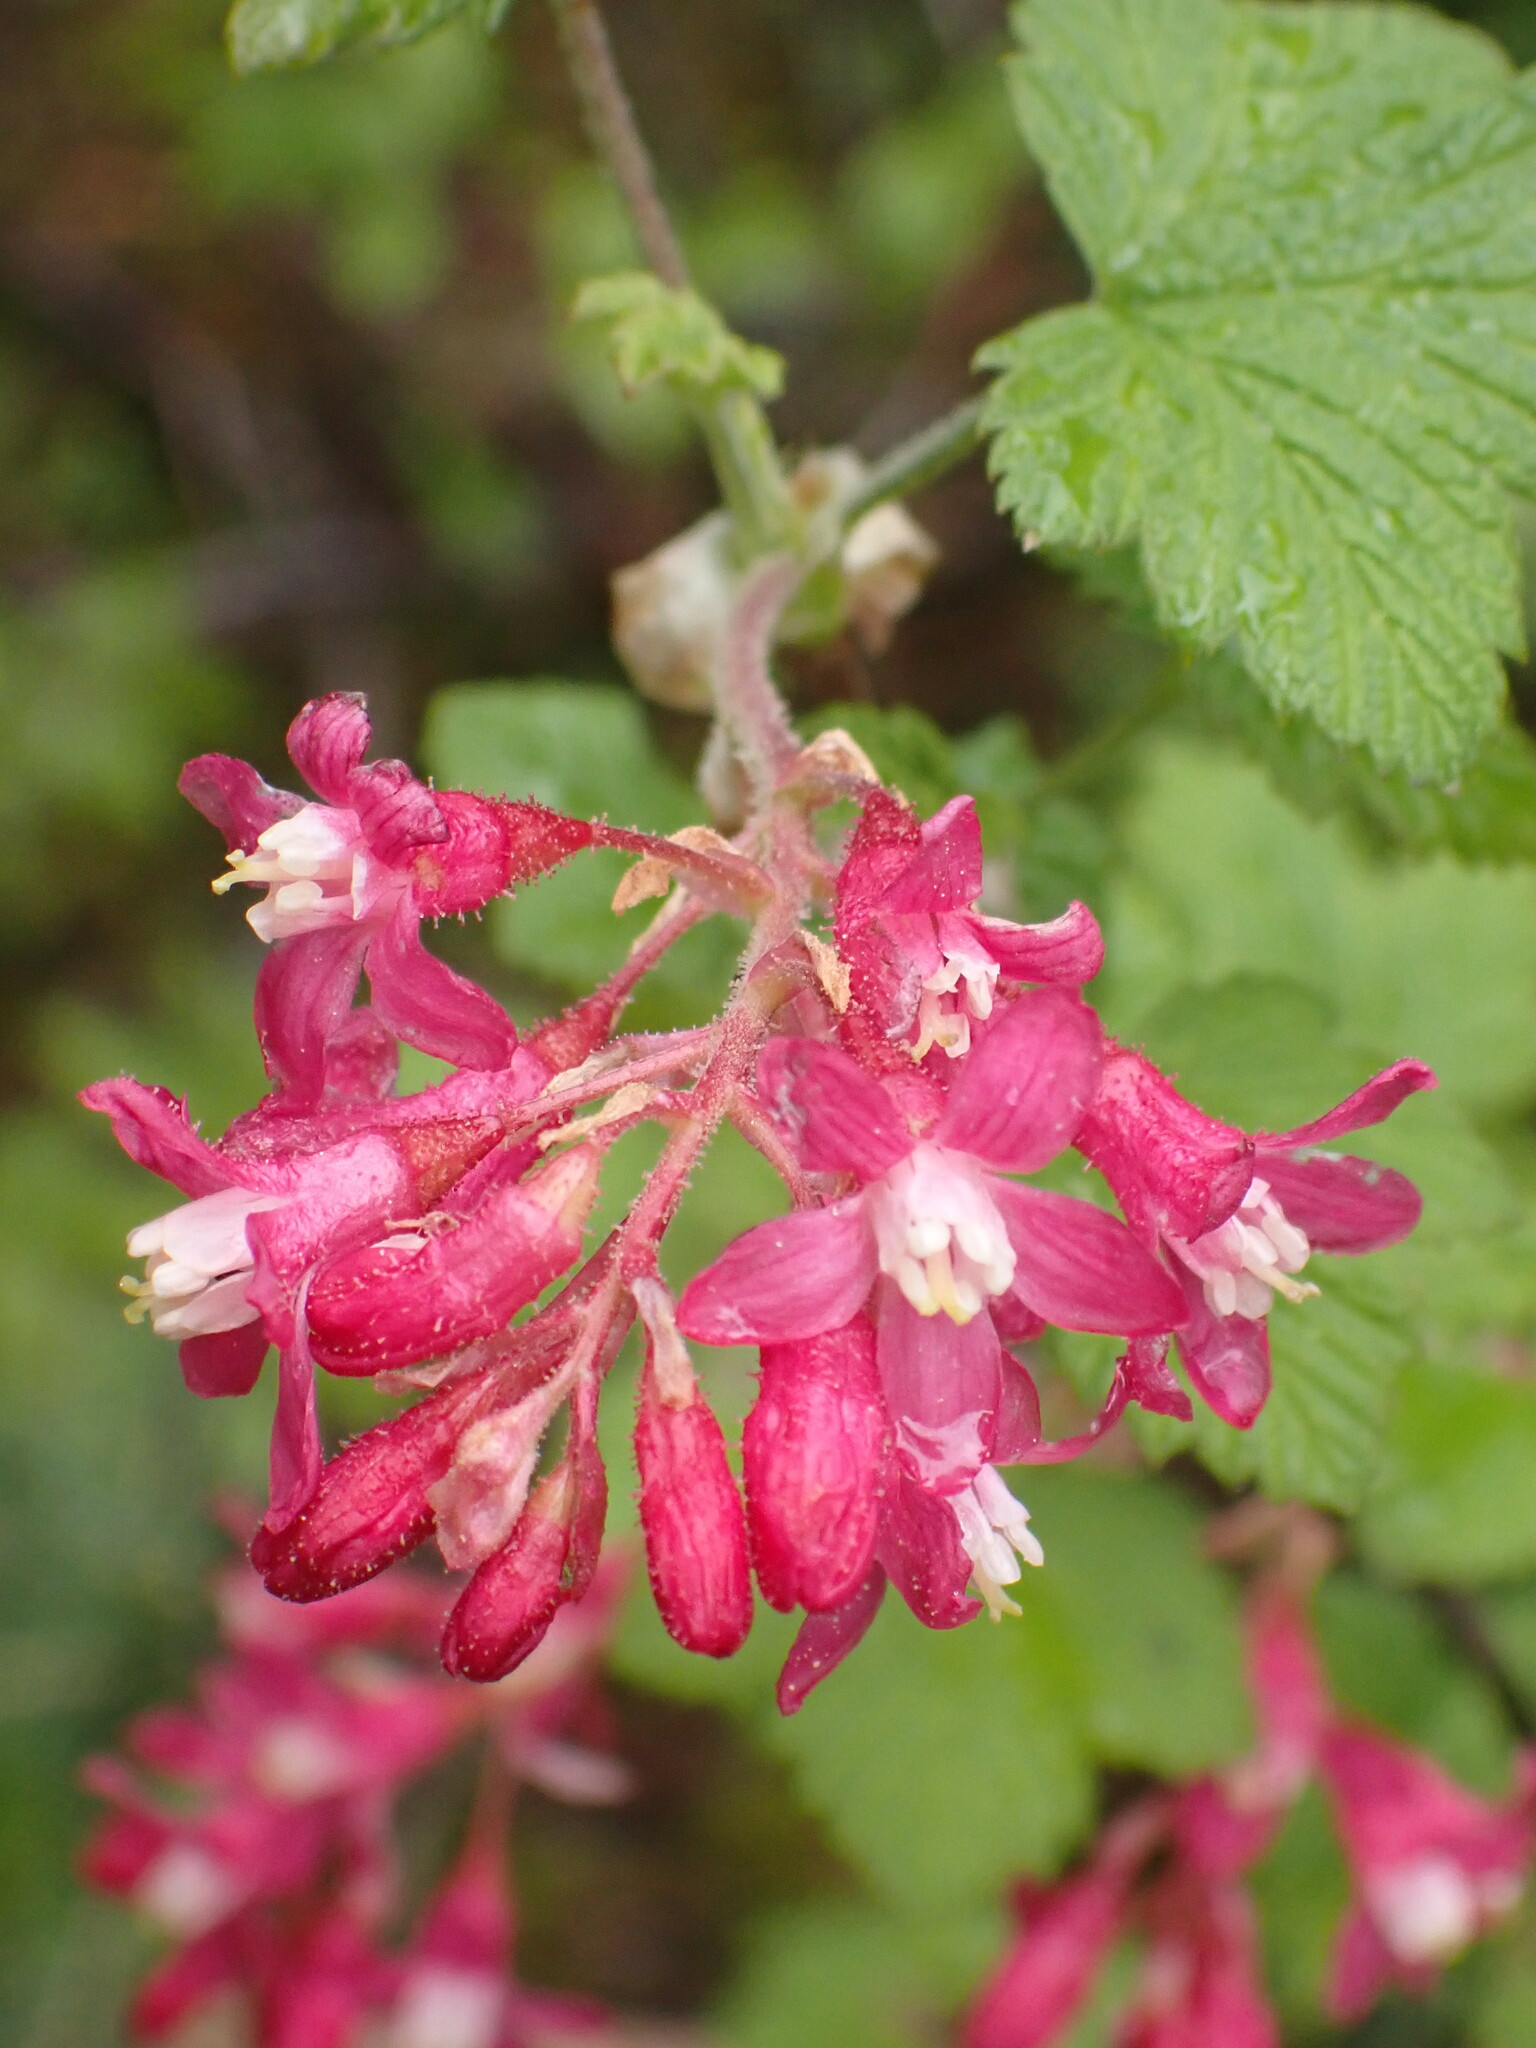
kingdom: Plantae
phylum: Tracheophyta
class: Magnoliopsida
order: Saxifragales
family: Grossulariaceae
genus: Ribes
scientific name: Ribes sanguineum
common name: Flowering currant
